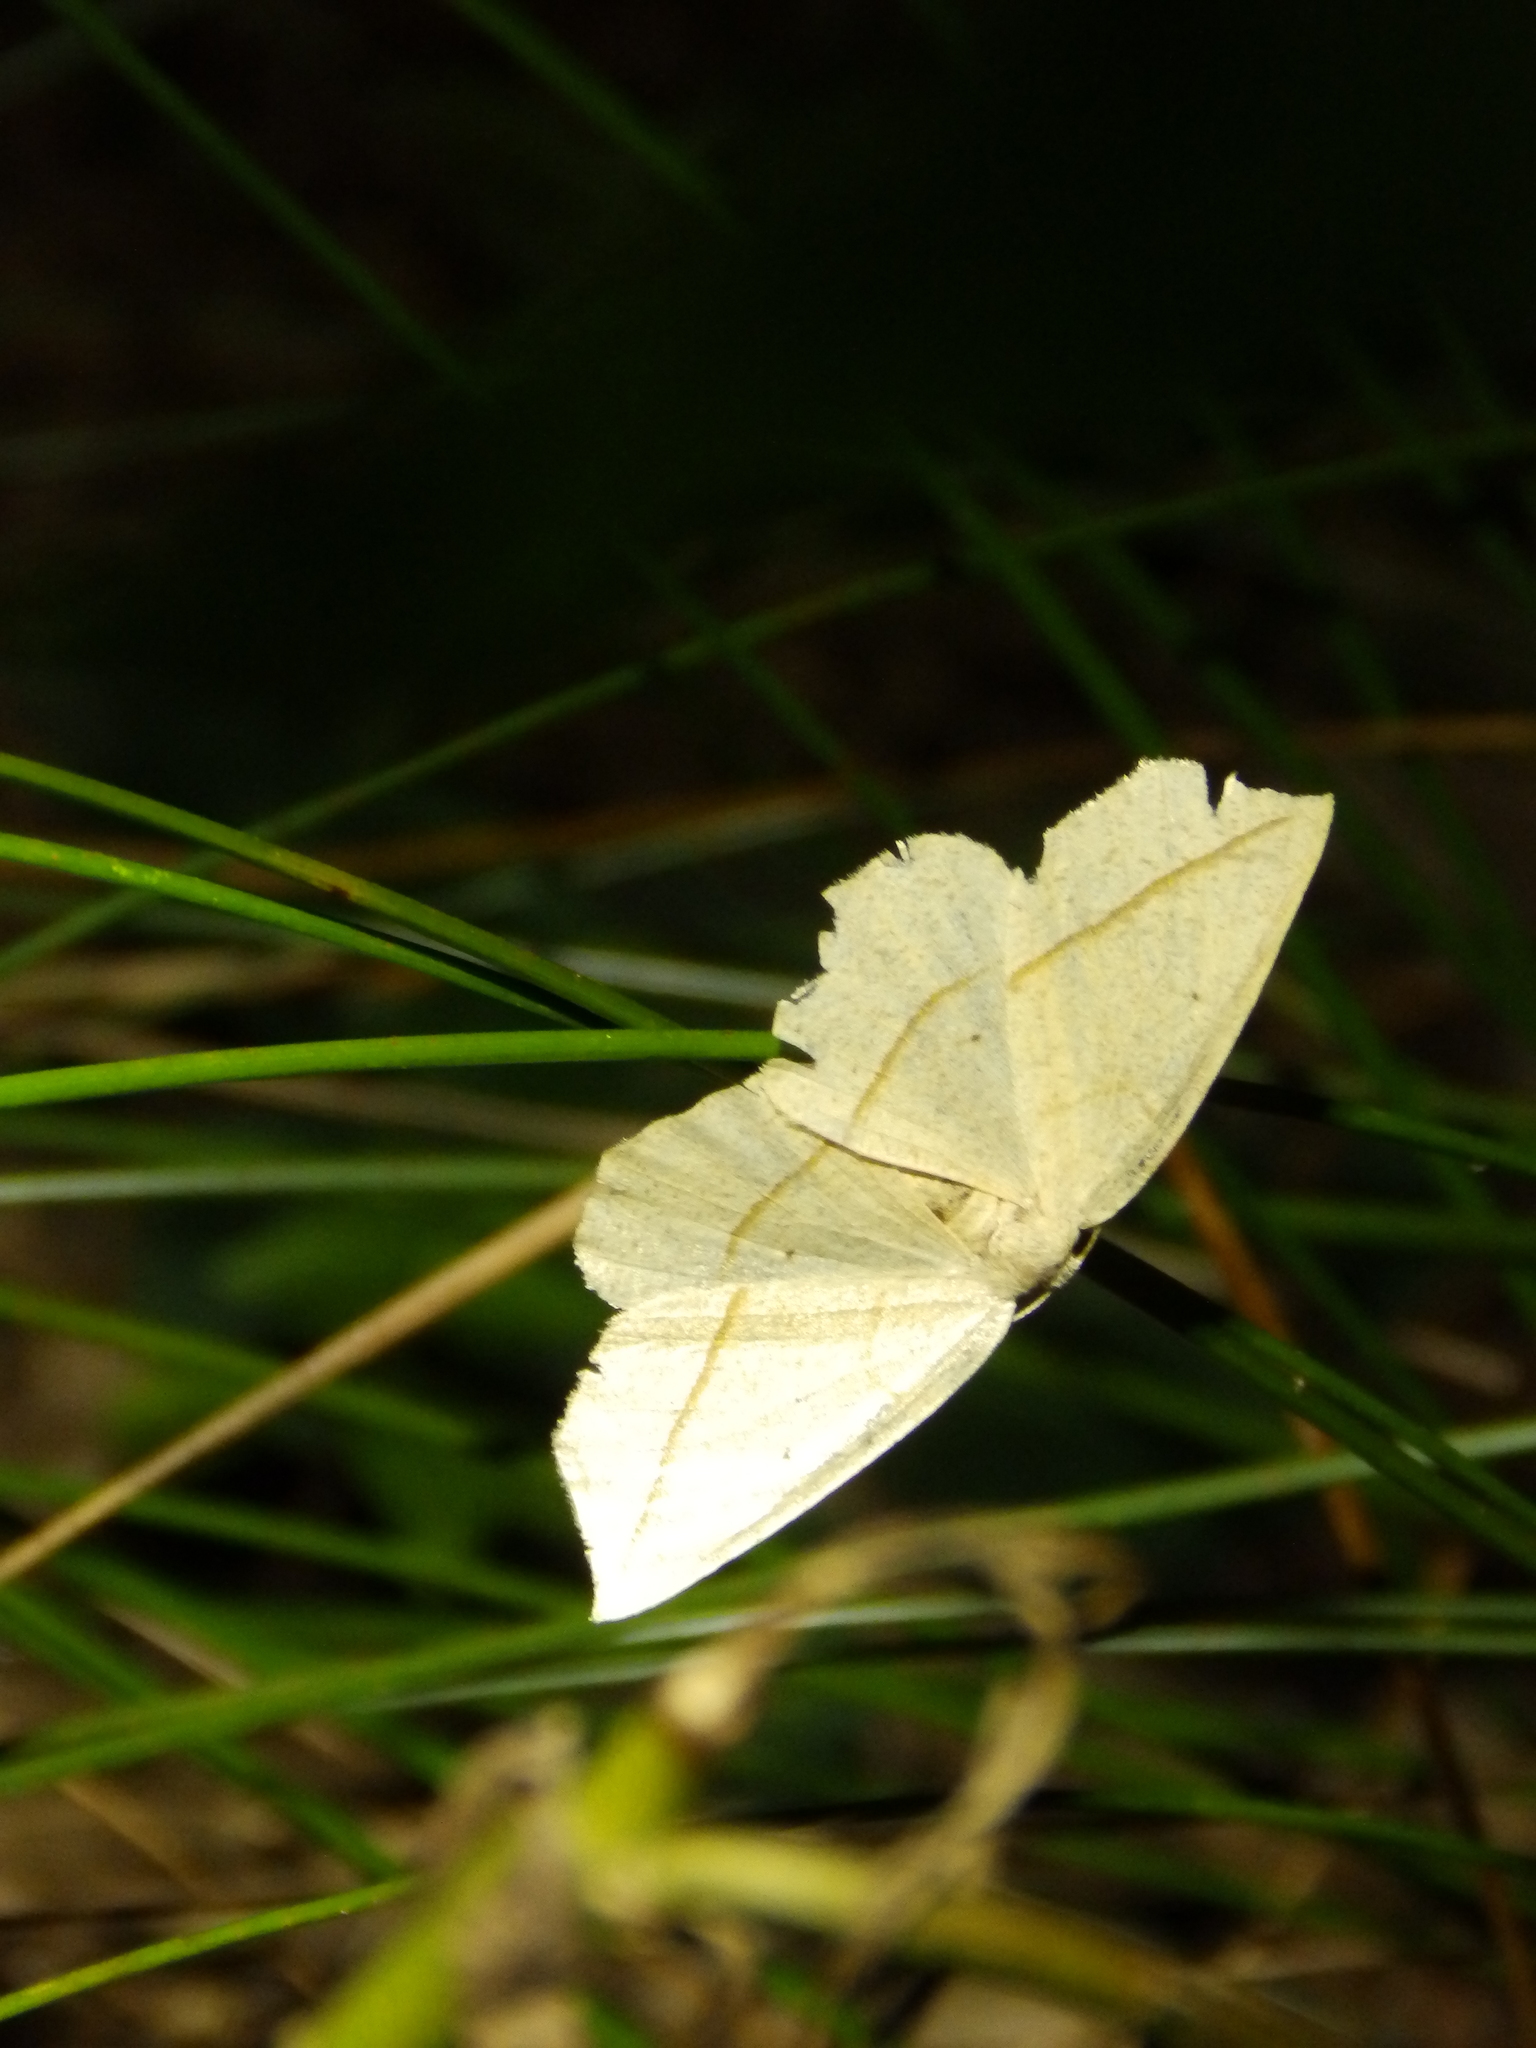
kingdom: Animalia
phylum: Arthropoda
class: Insecta
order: Lepidoptera
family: Geometridae
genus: Eusarca
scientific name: Eusarca confusaria
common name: Confused eusarca
